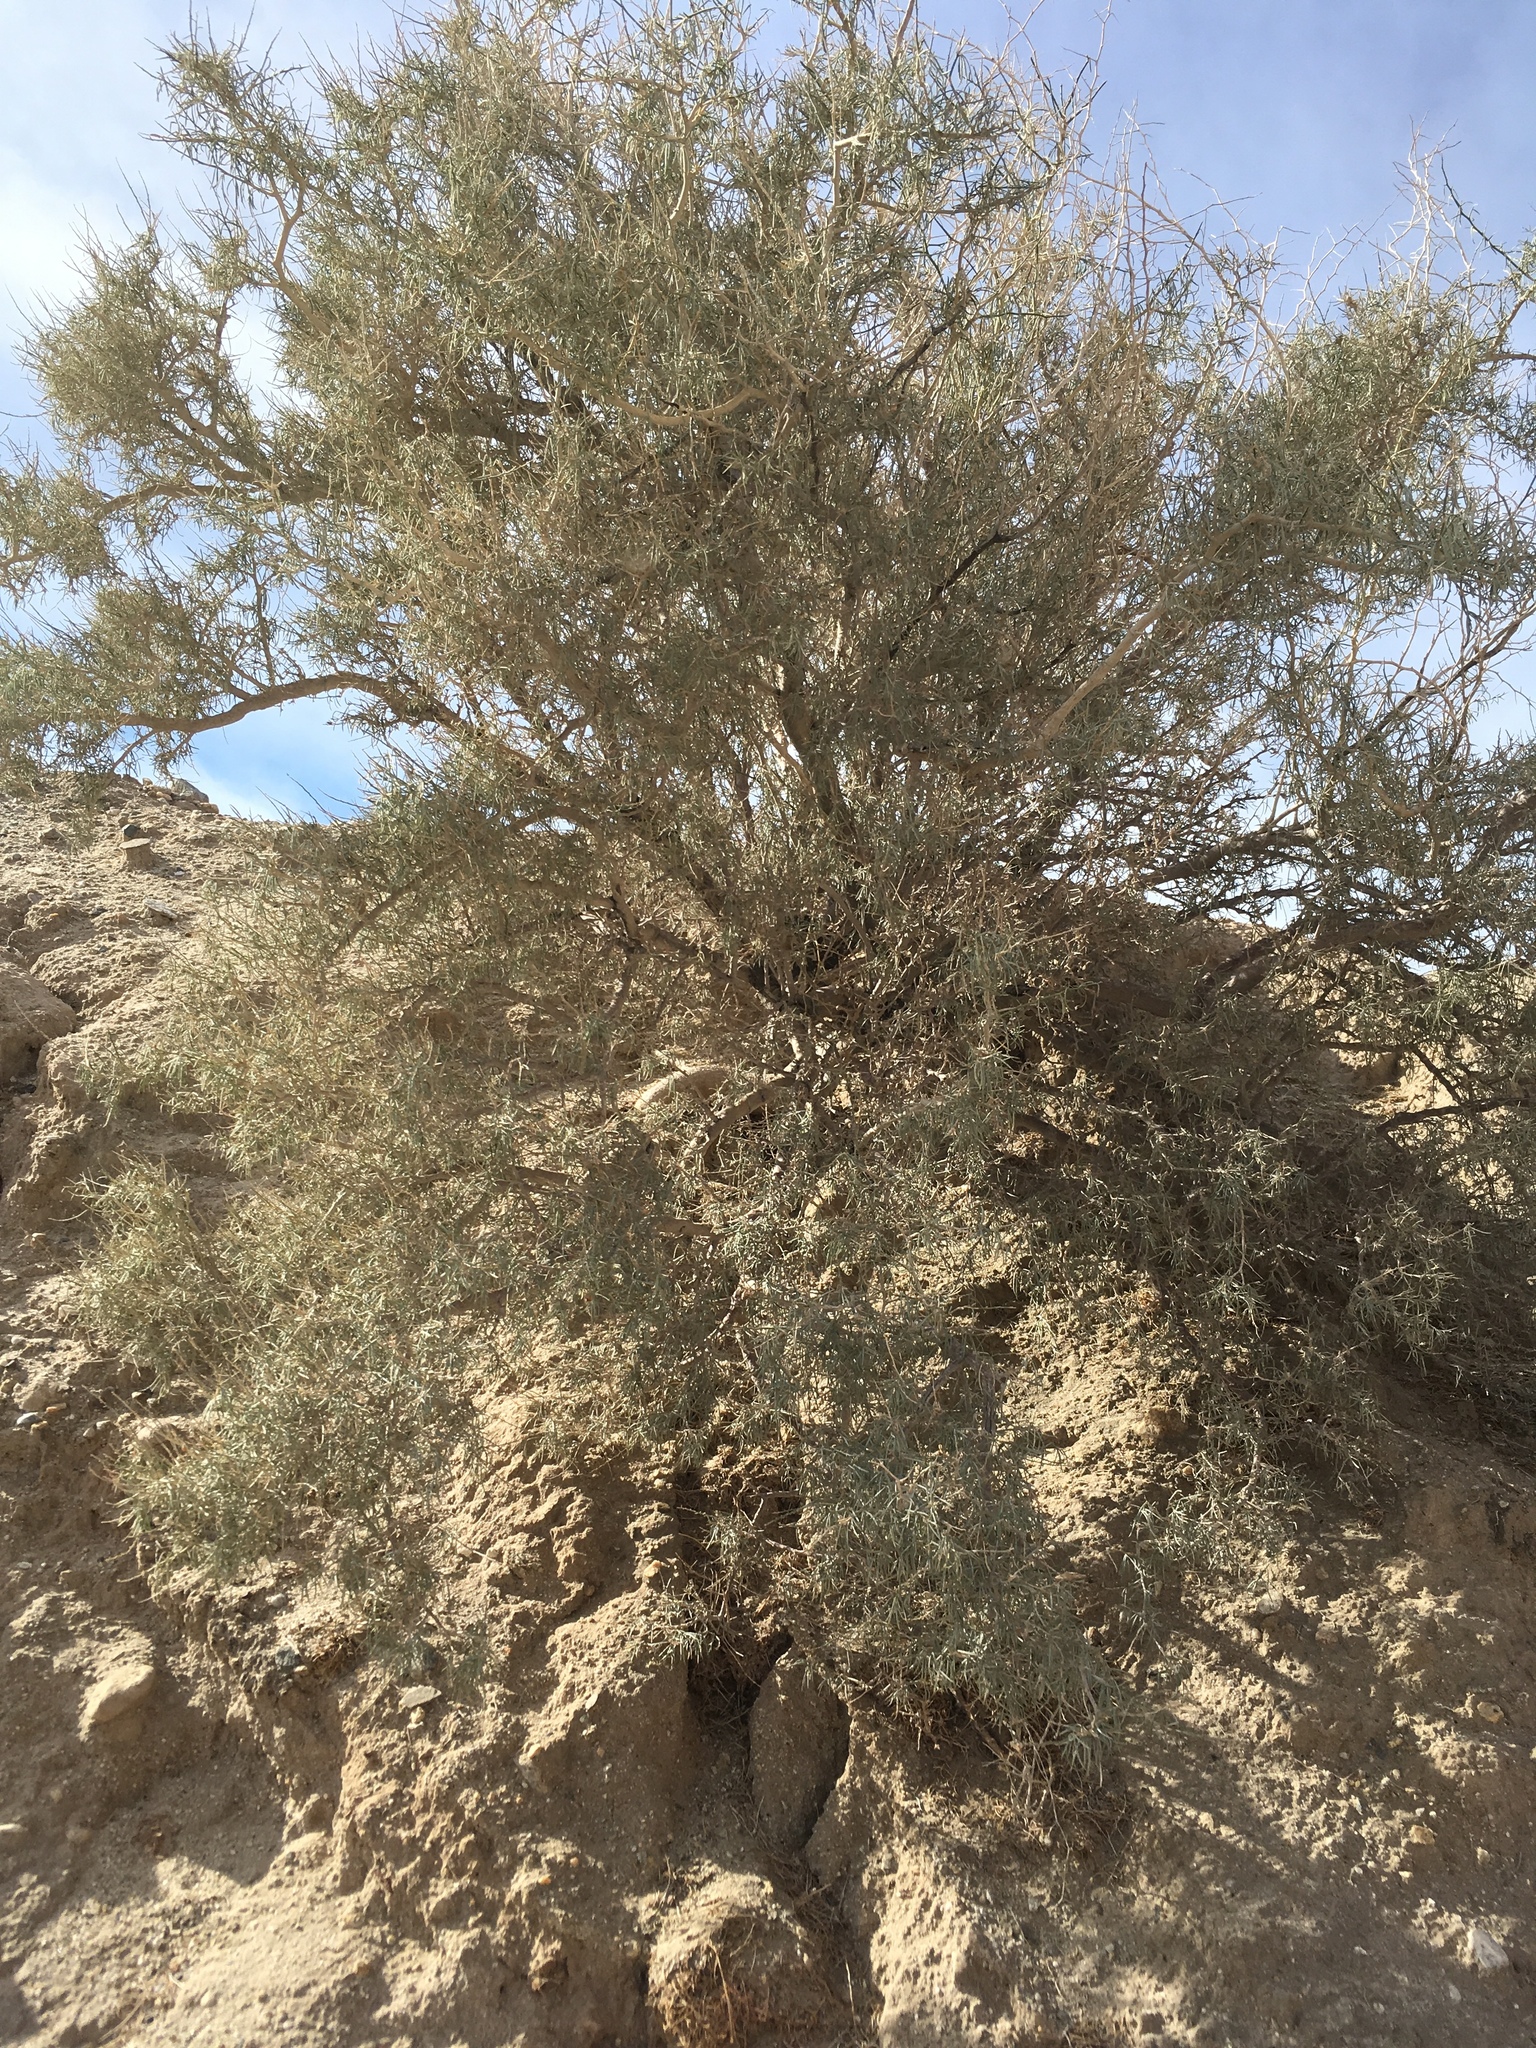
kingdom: Plantae
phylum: Tracheophyta
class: Magnoliopsida
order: Fabales
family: Fabaceae
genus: Psorothamnus
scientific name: Psorothamnus schottii
